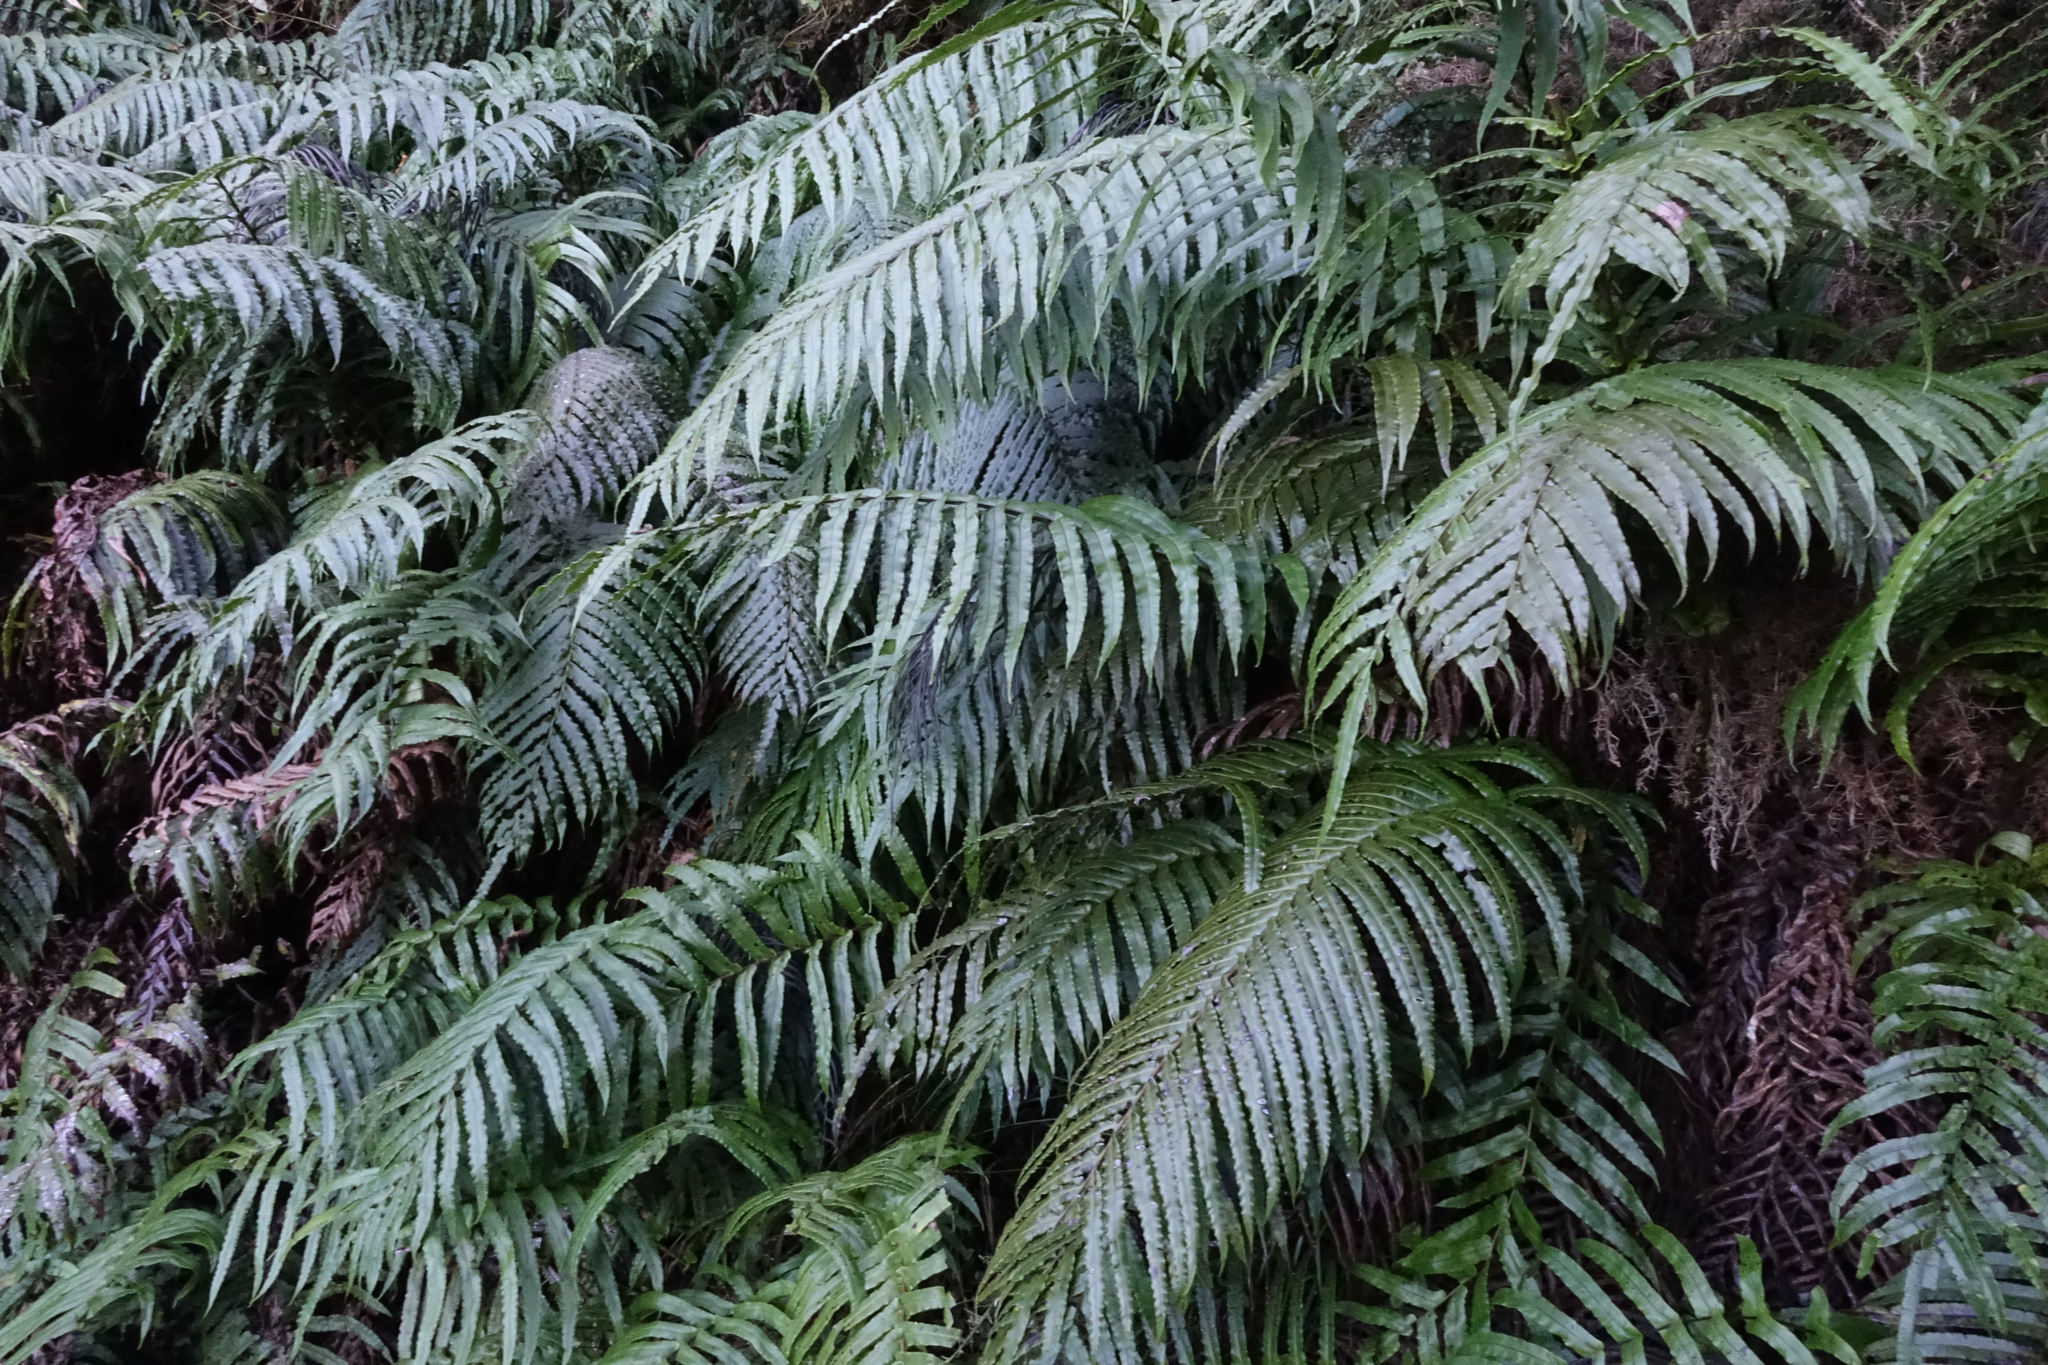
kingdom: Plantae
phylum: Tracheophyta
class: Polypodiopsida
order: Polypodiales
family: Blechnaceae
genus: Parablechnum
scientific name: Parablechnum novae-zelandiae
